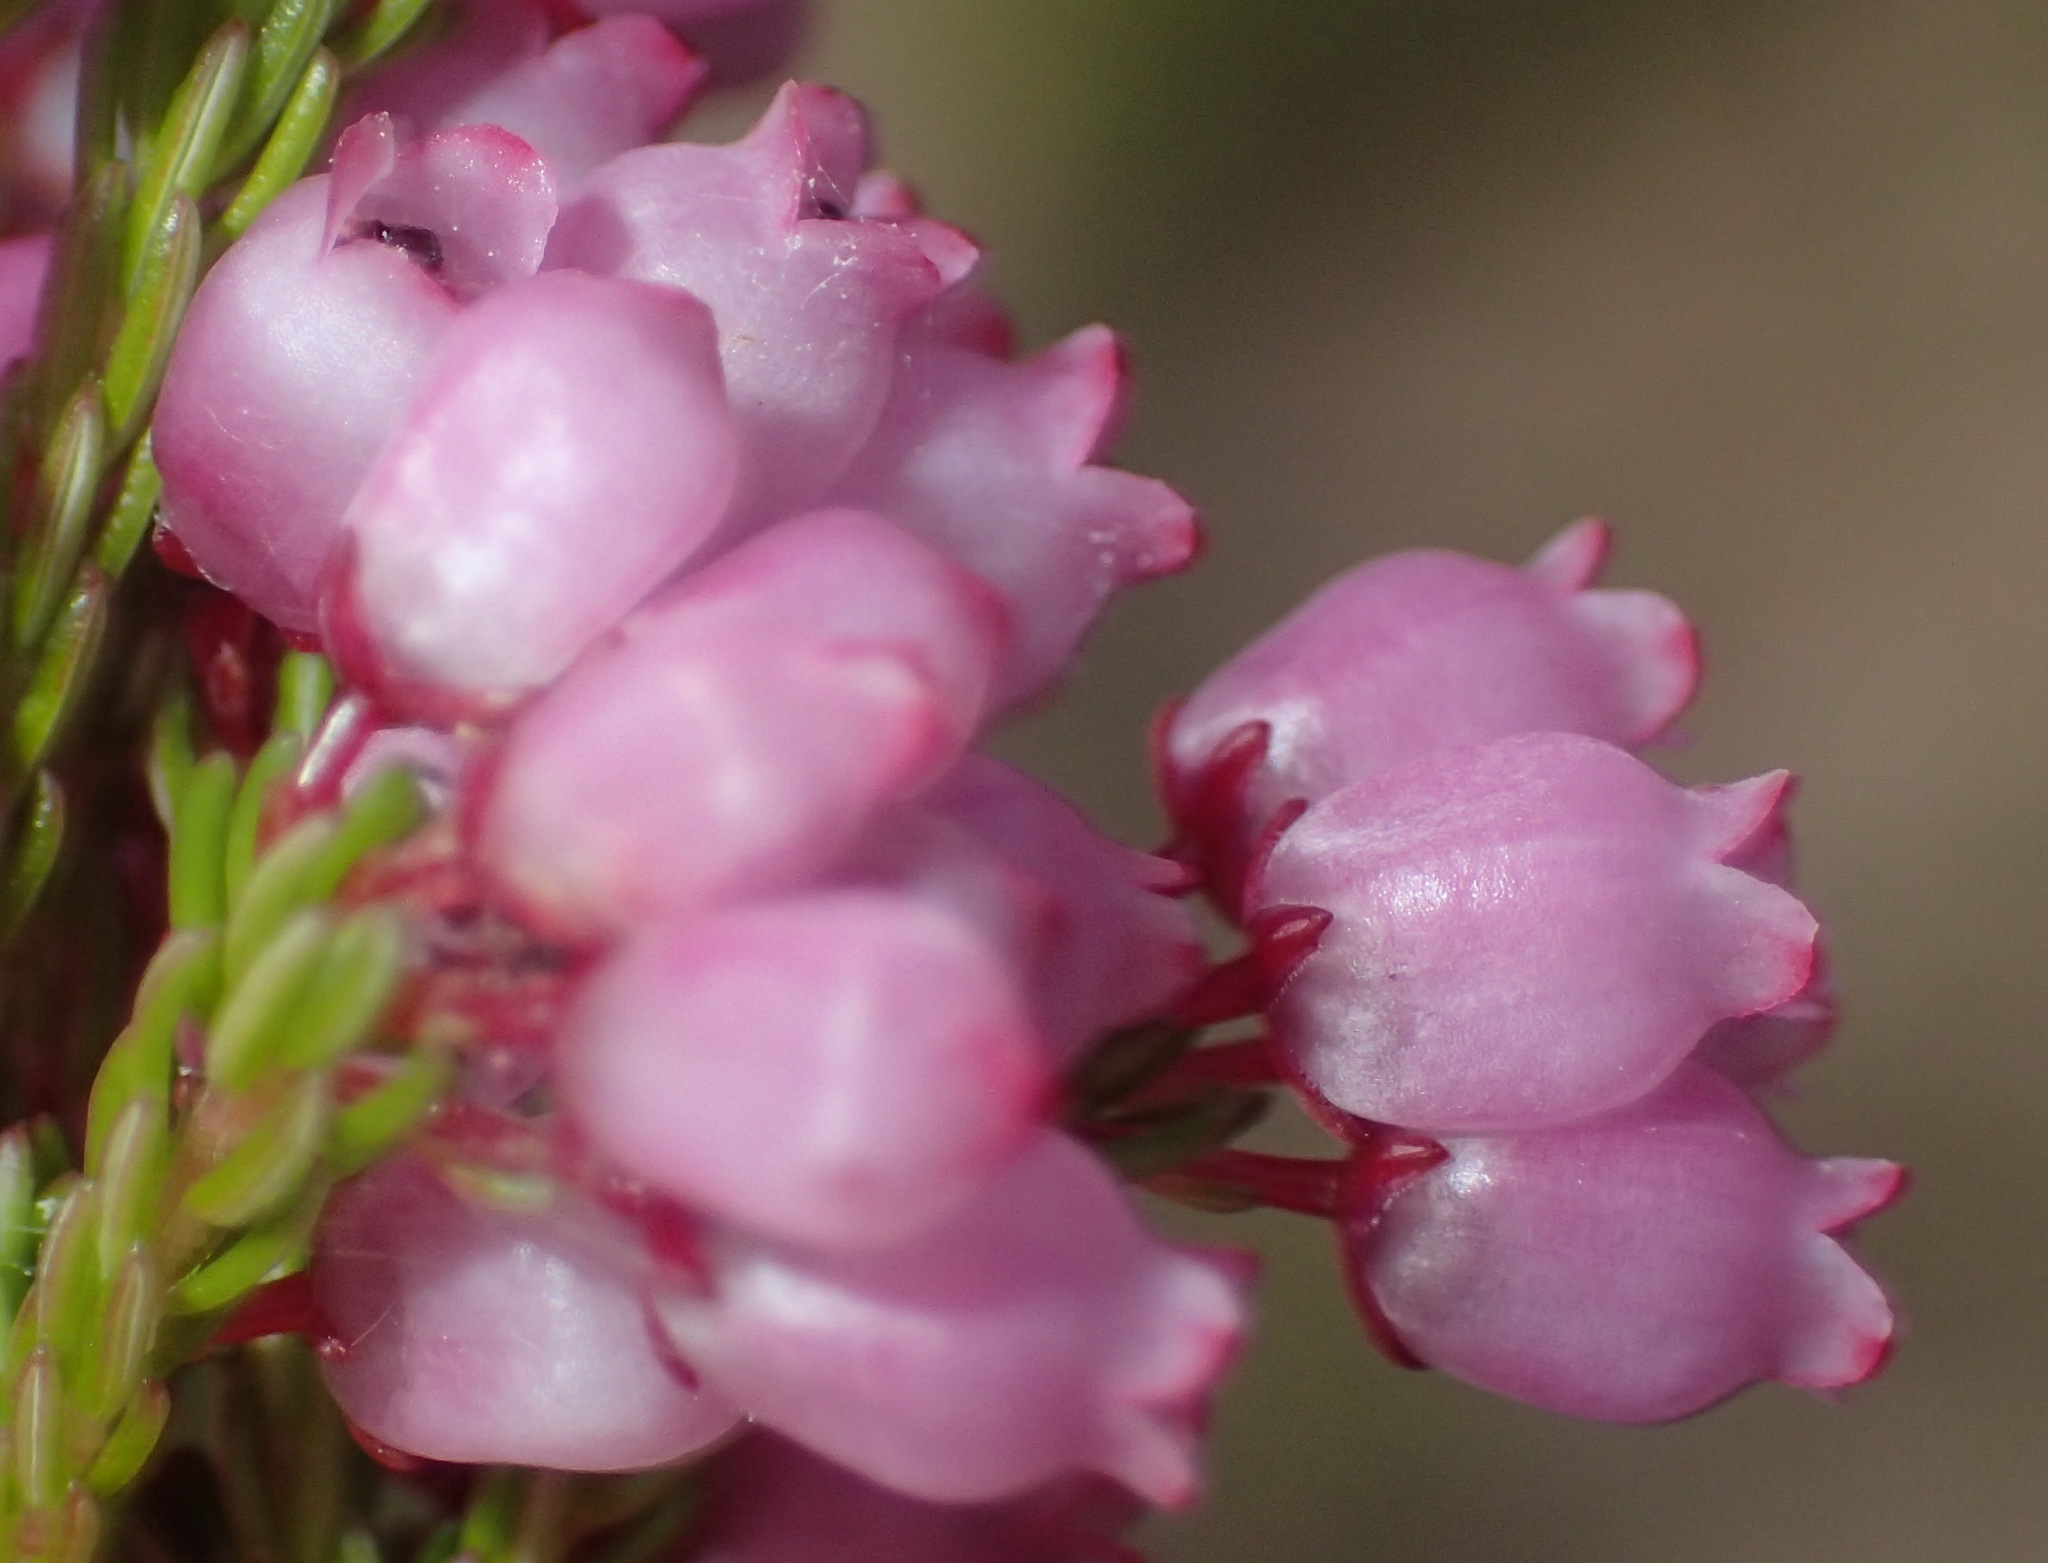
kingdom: Plantae
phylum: Tracheophyta
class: Magnoliopsida
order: Ericales
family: Ericaceae
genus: Erica
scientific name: Erica gracilis
